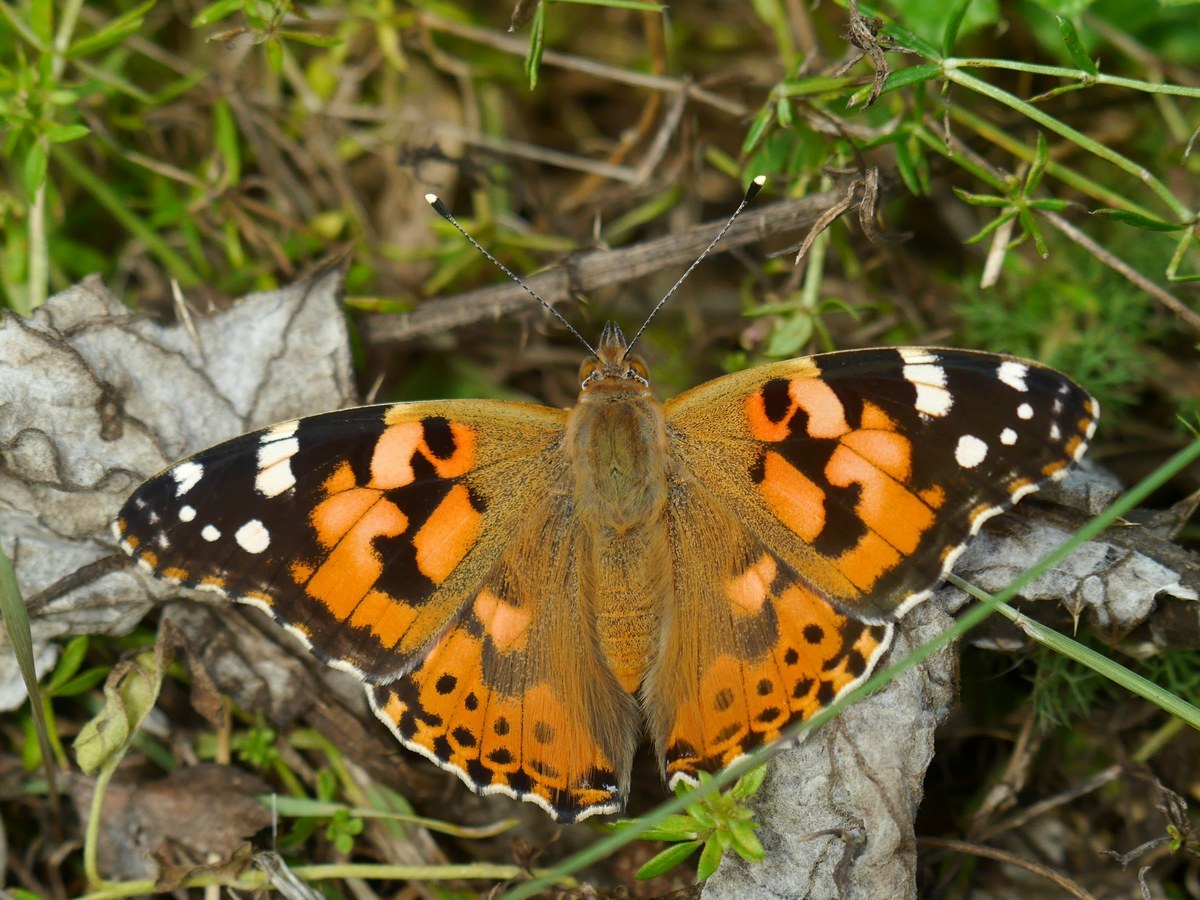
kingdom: Animalia
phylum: Arthropoda
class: Insecta
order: Lepidoptera
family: Nymphalidae
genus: Vanessa
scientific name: Vanessa cardui
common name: Painted lady
